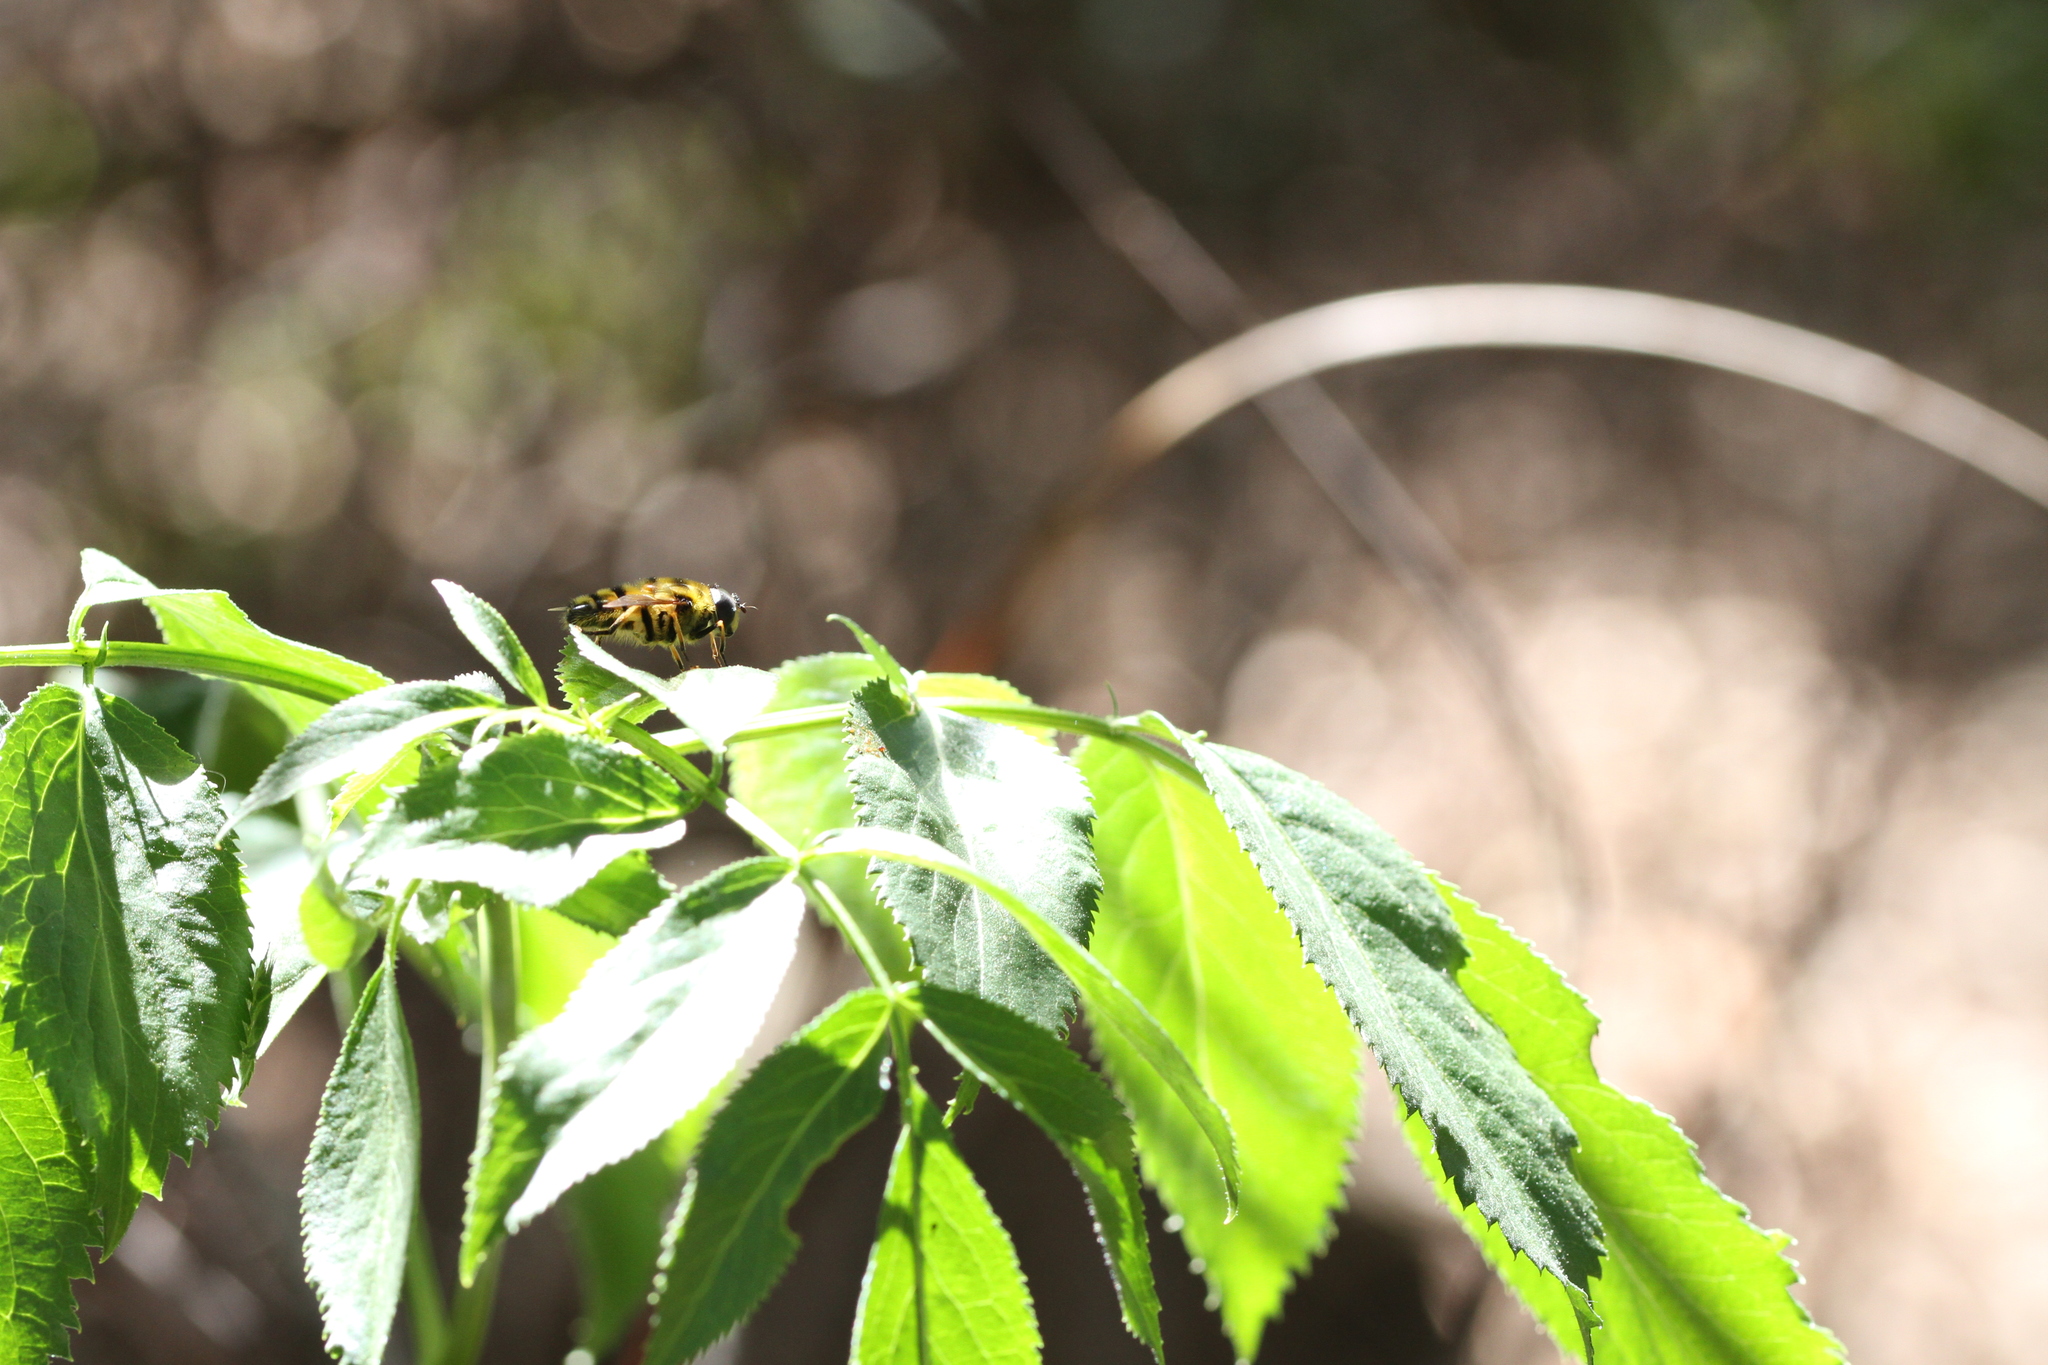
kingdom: Animalia
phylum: Arthropoda
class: Insecta
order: Diptera
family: Syrphidae
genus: Myathropa
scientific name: Myathropa florea
